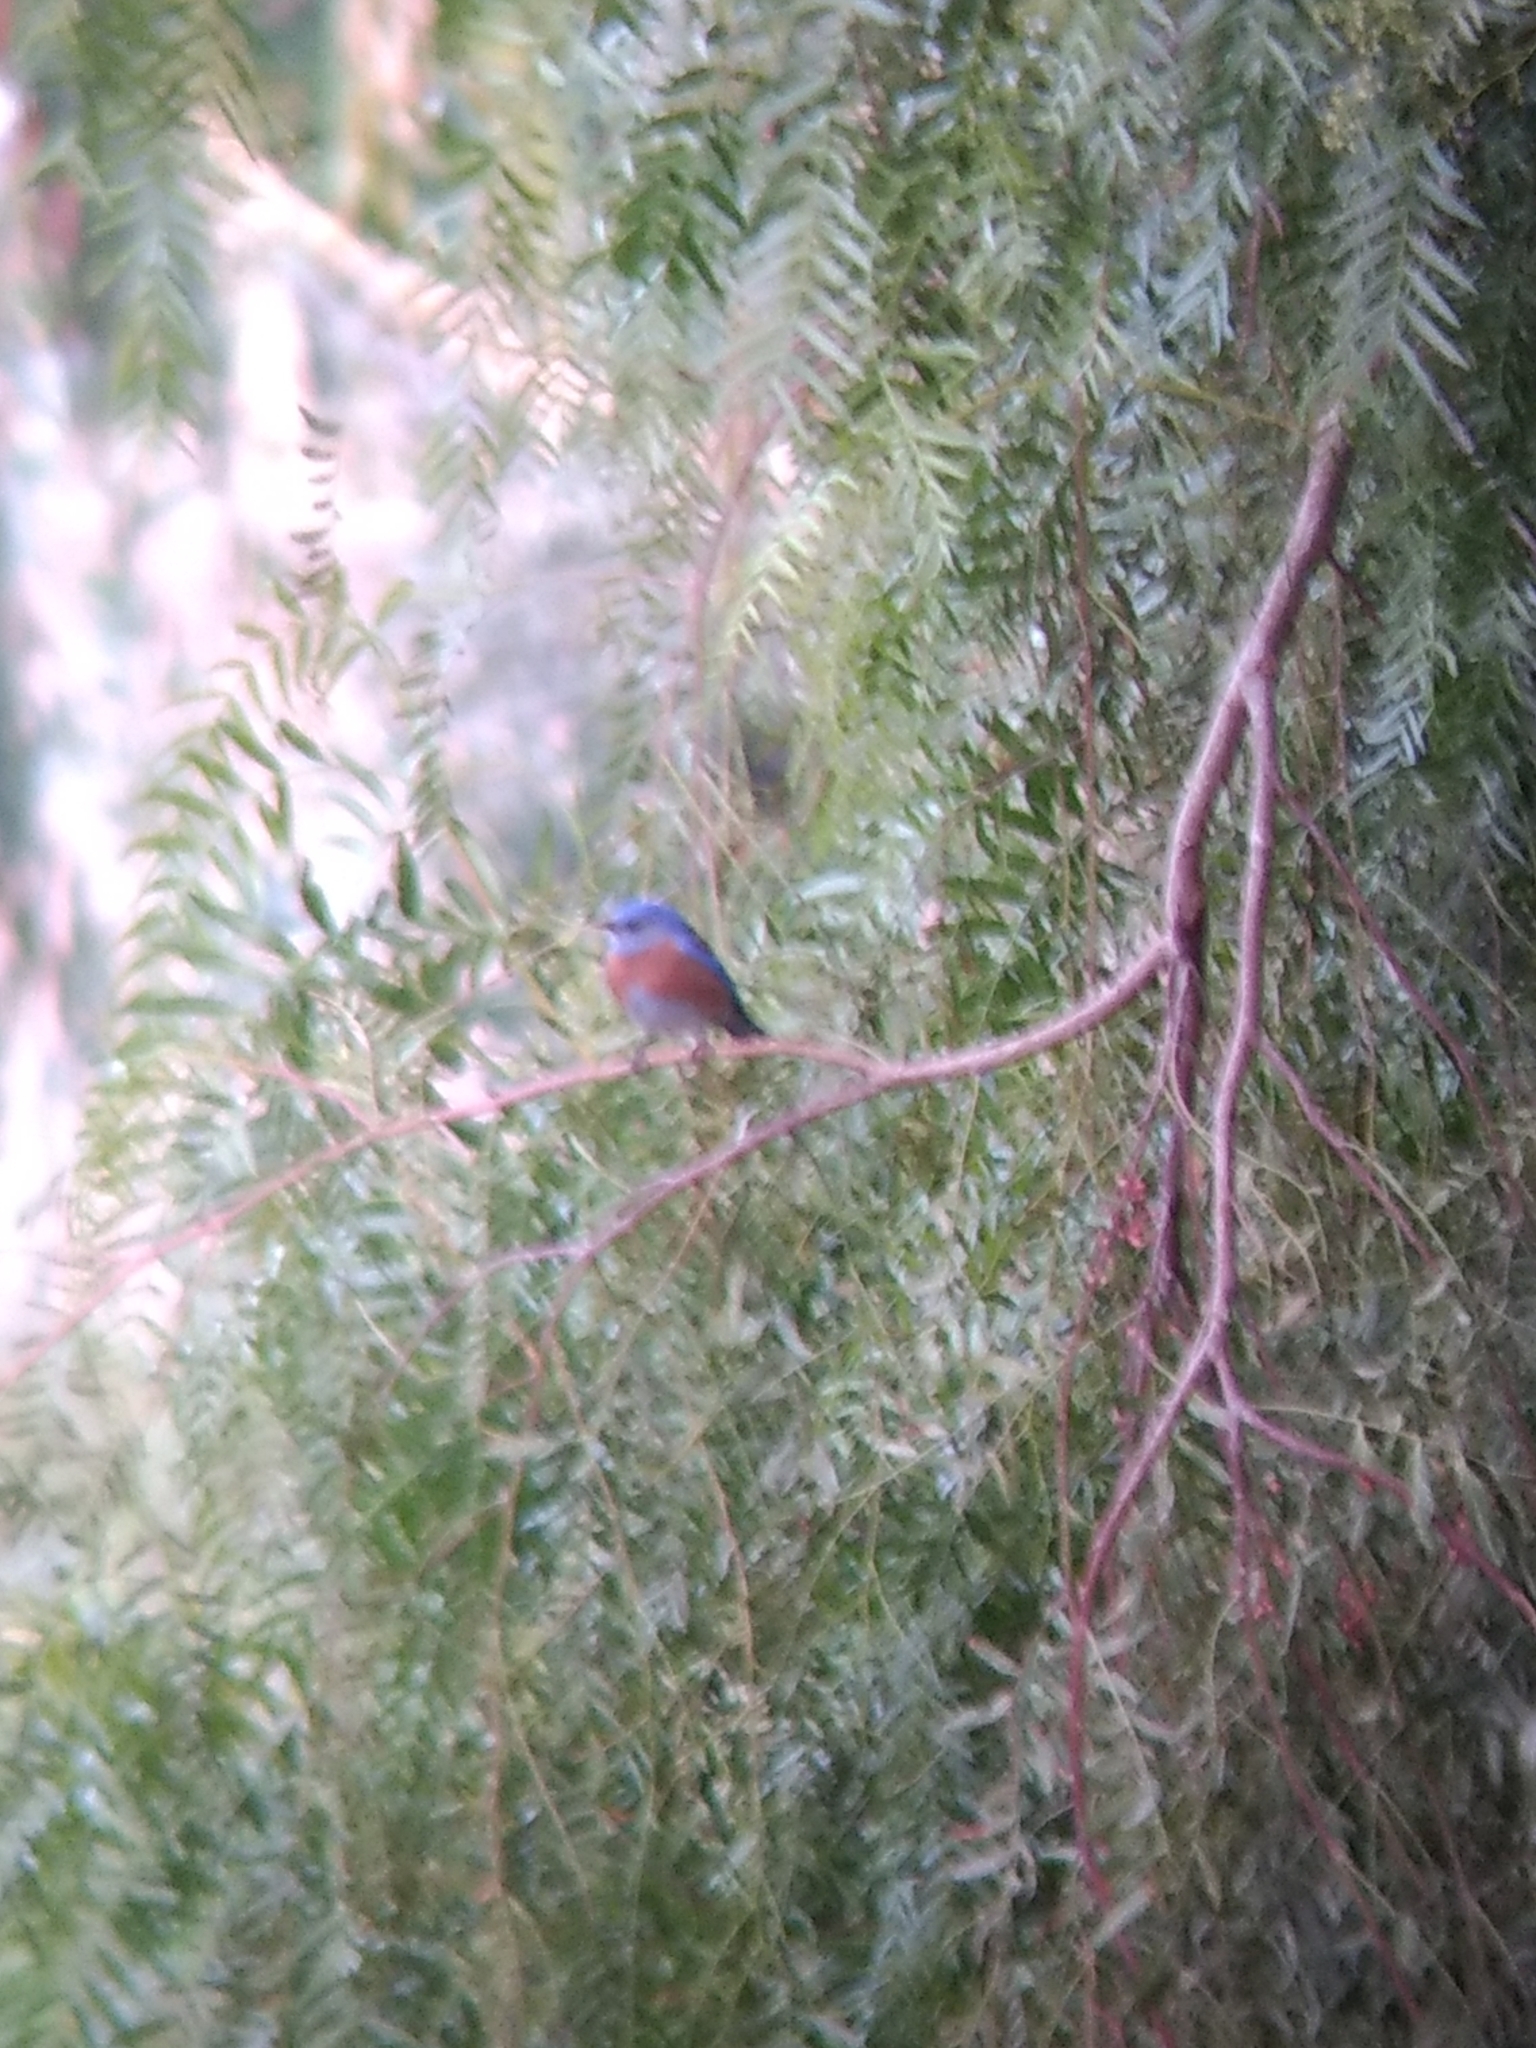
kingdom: Animalia
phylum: Chordata
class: Aves
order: Passeriformes
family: Turdidae
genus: Sialia
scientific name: Sialia mexicana
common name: Western bluebird
